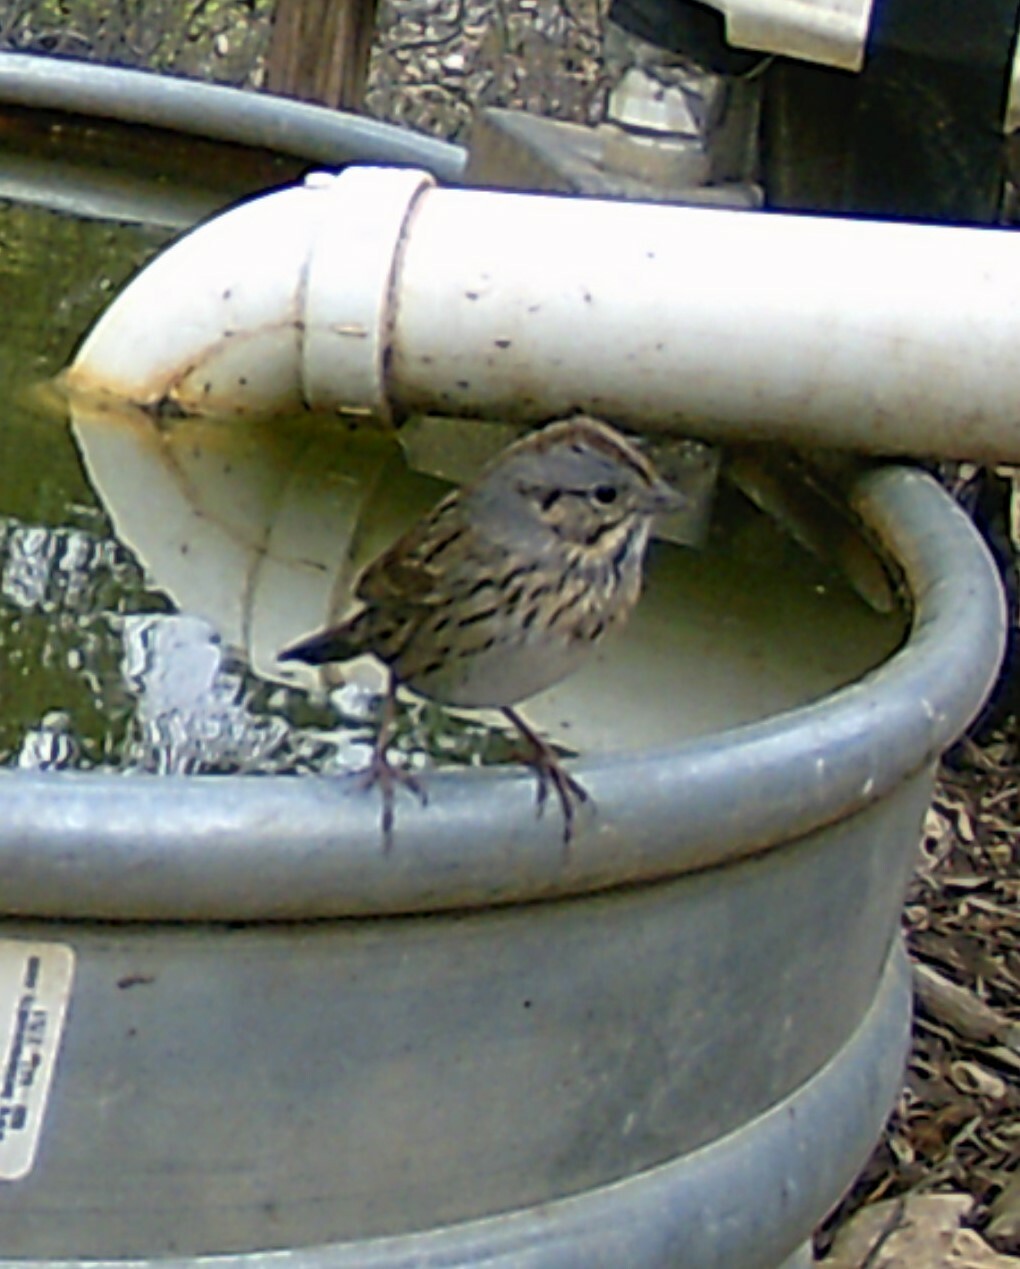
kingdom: Animalia
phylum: Chordata
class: Aves
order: Passeriformes
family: Passerellidae
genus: Melospiza
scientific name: Melospiza lincolnii
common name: Lincoln's sparrow
